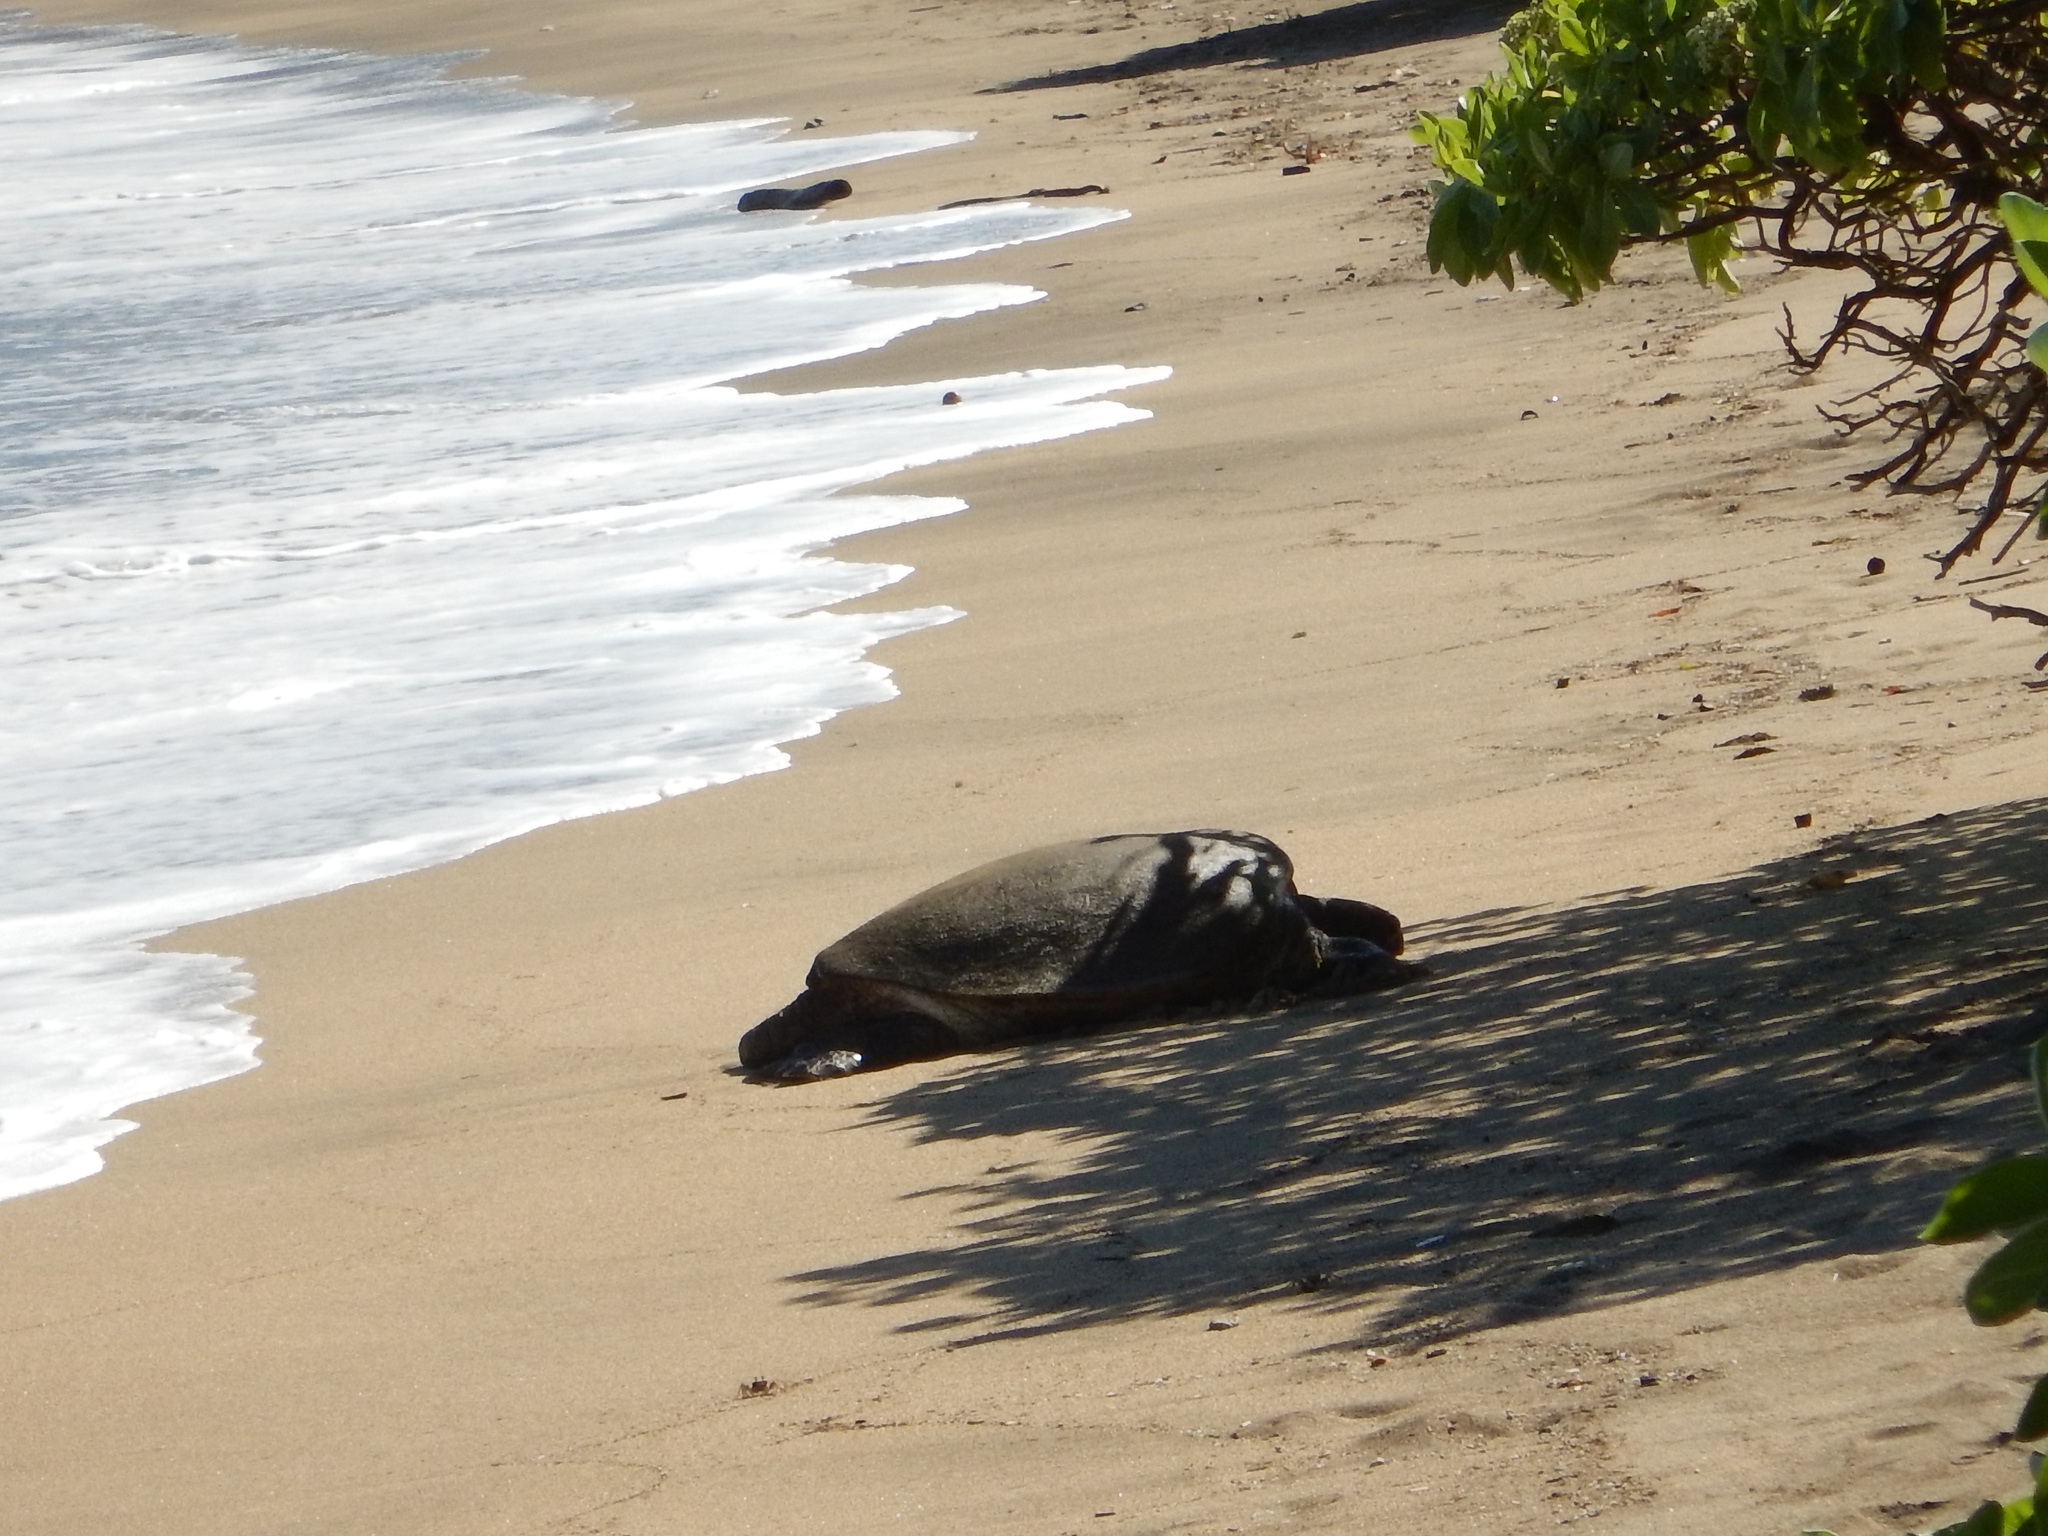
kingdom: Animalia
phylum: Chordata
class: Testudines
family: Cheloniidae
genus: Chelonia
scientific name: Chelonia mydas
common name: Green turtle
